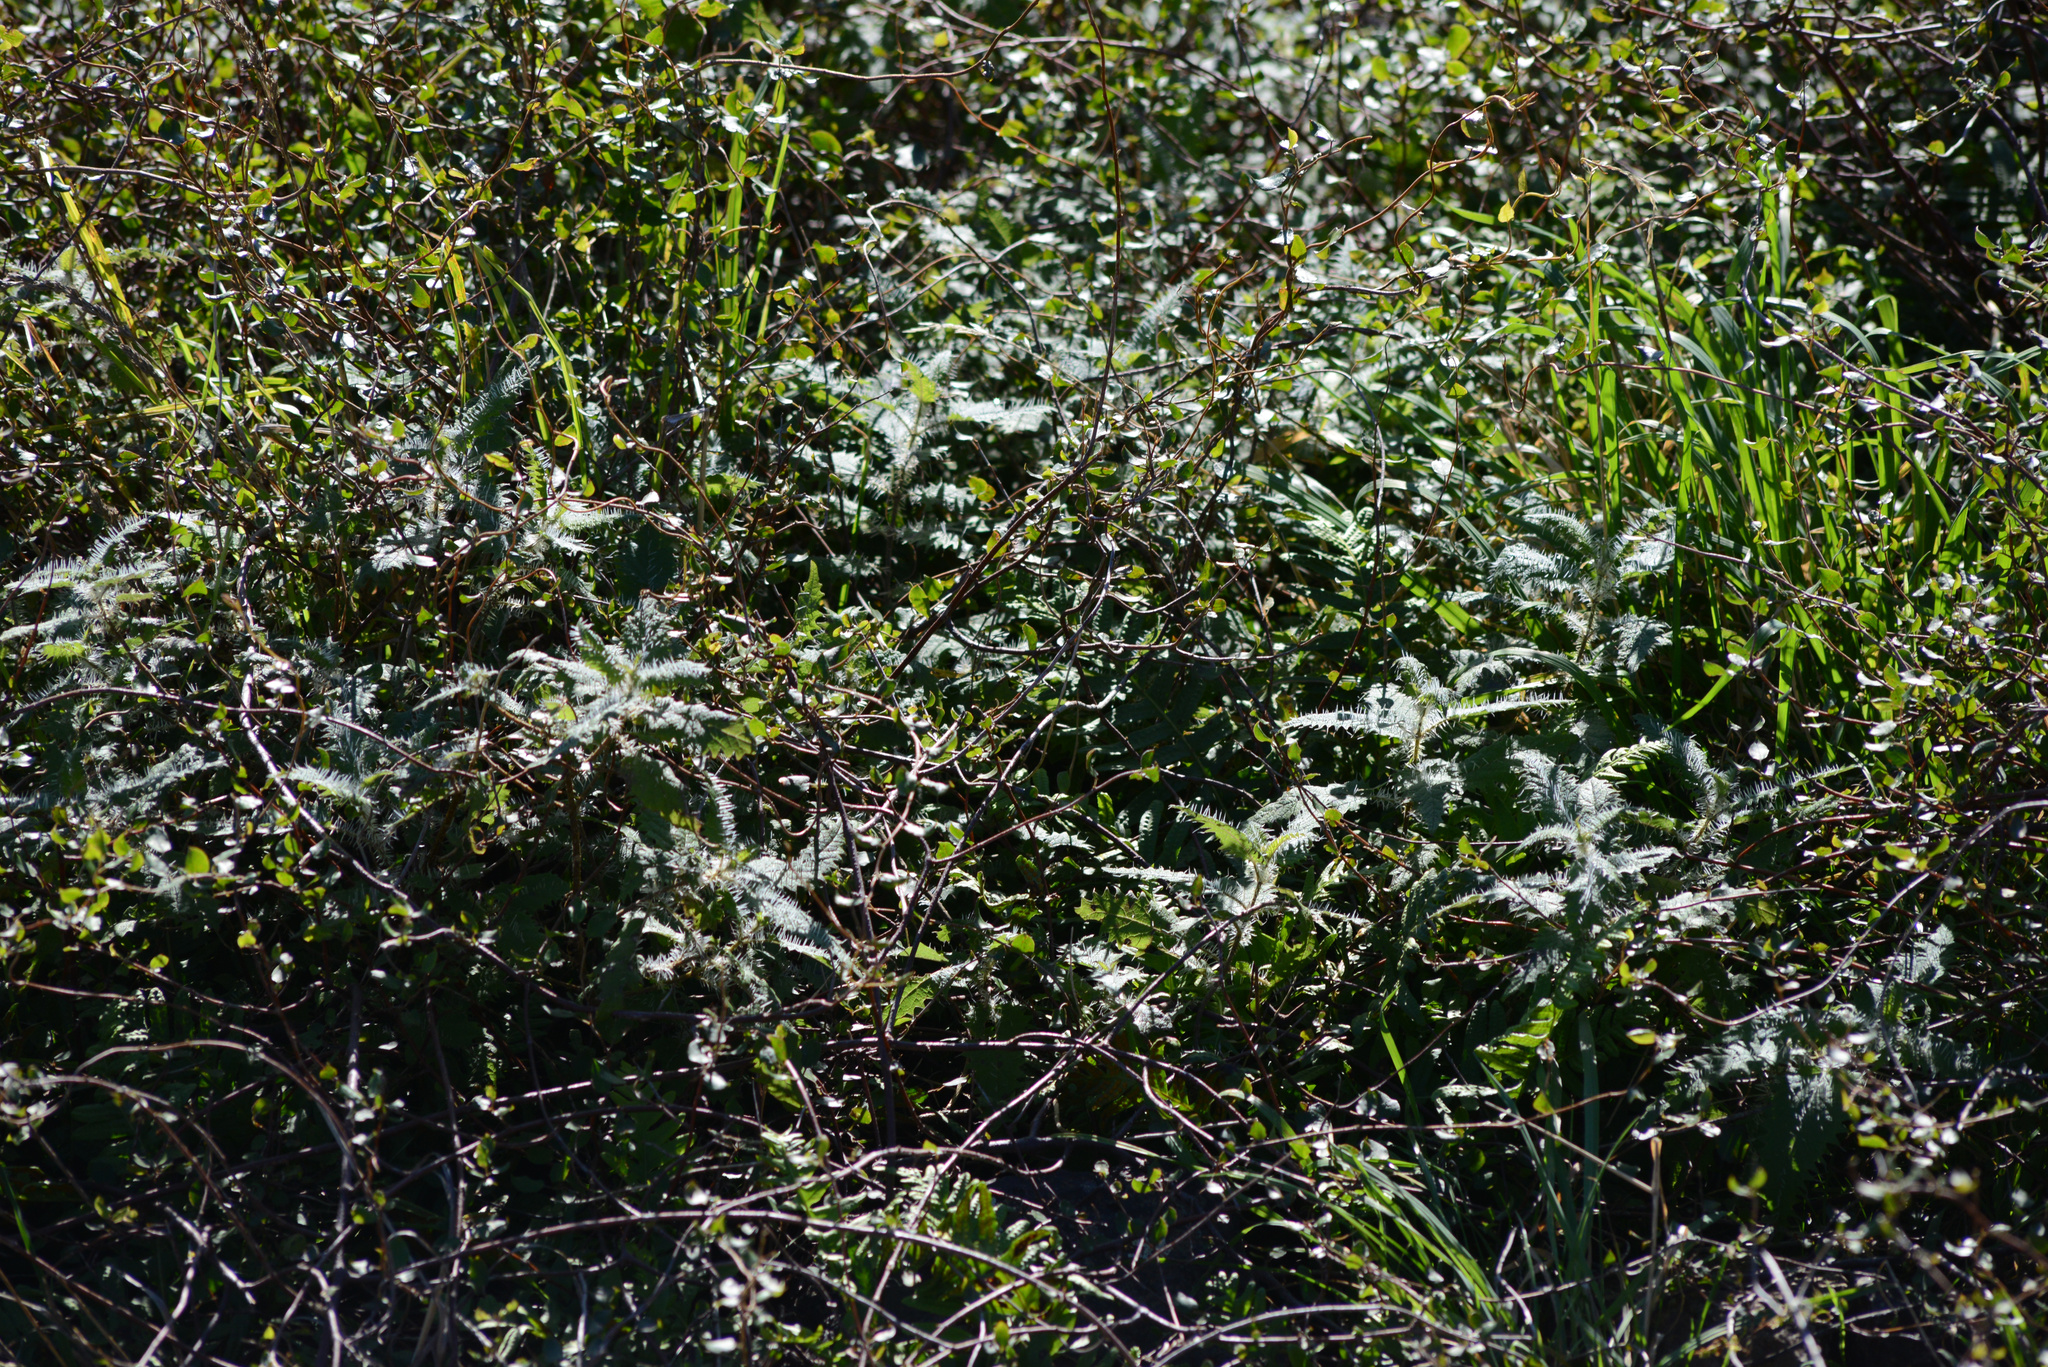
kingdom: Plantae
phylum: Tracheophyta
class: Magnoliopsida
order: Rosales
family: Urticaceae
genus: Urtica
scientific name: Urtica ferox
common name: Tree nettle
